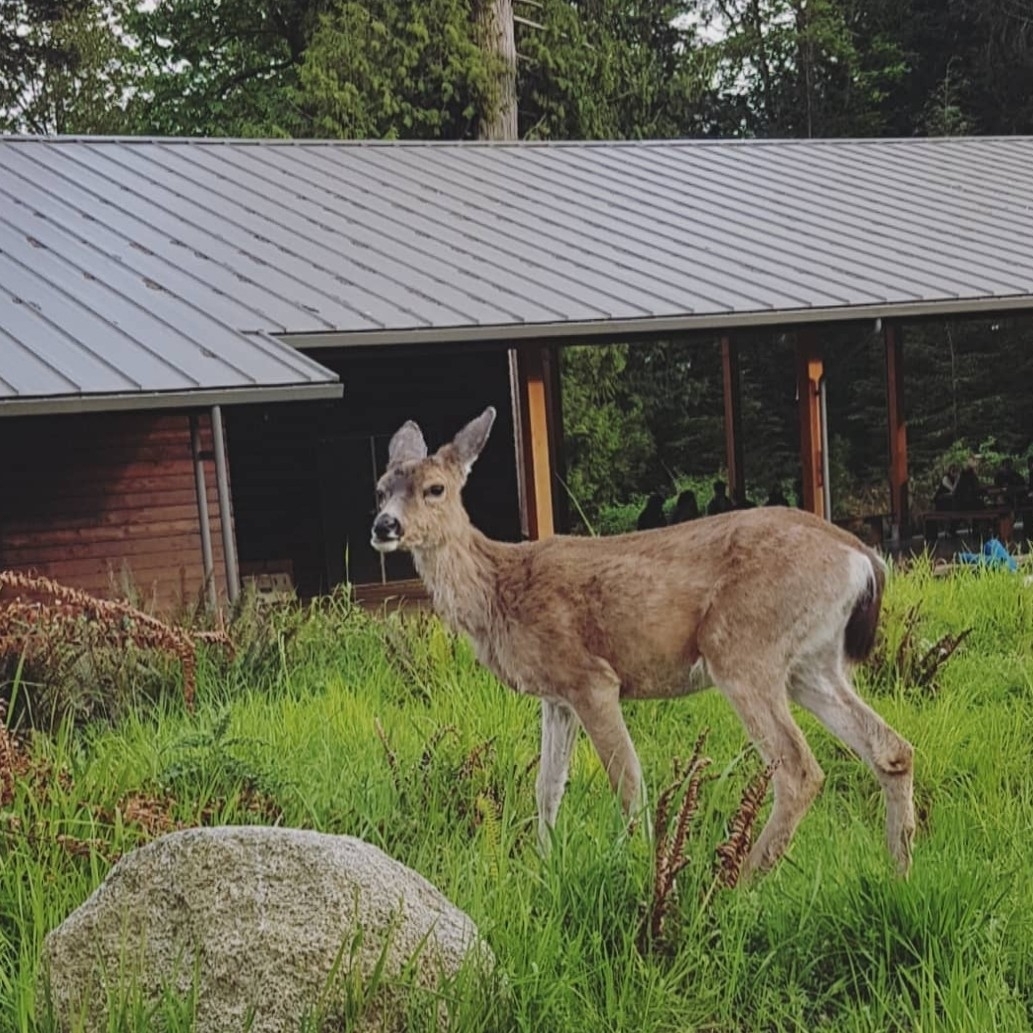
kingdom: Animalia
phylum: Chordata
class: Mammalia
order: Artiodactyla
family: Cervidae
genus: Odocoileus
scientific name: Odocoileus hemionus
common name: Mule deer
